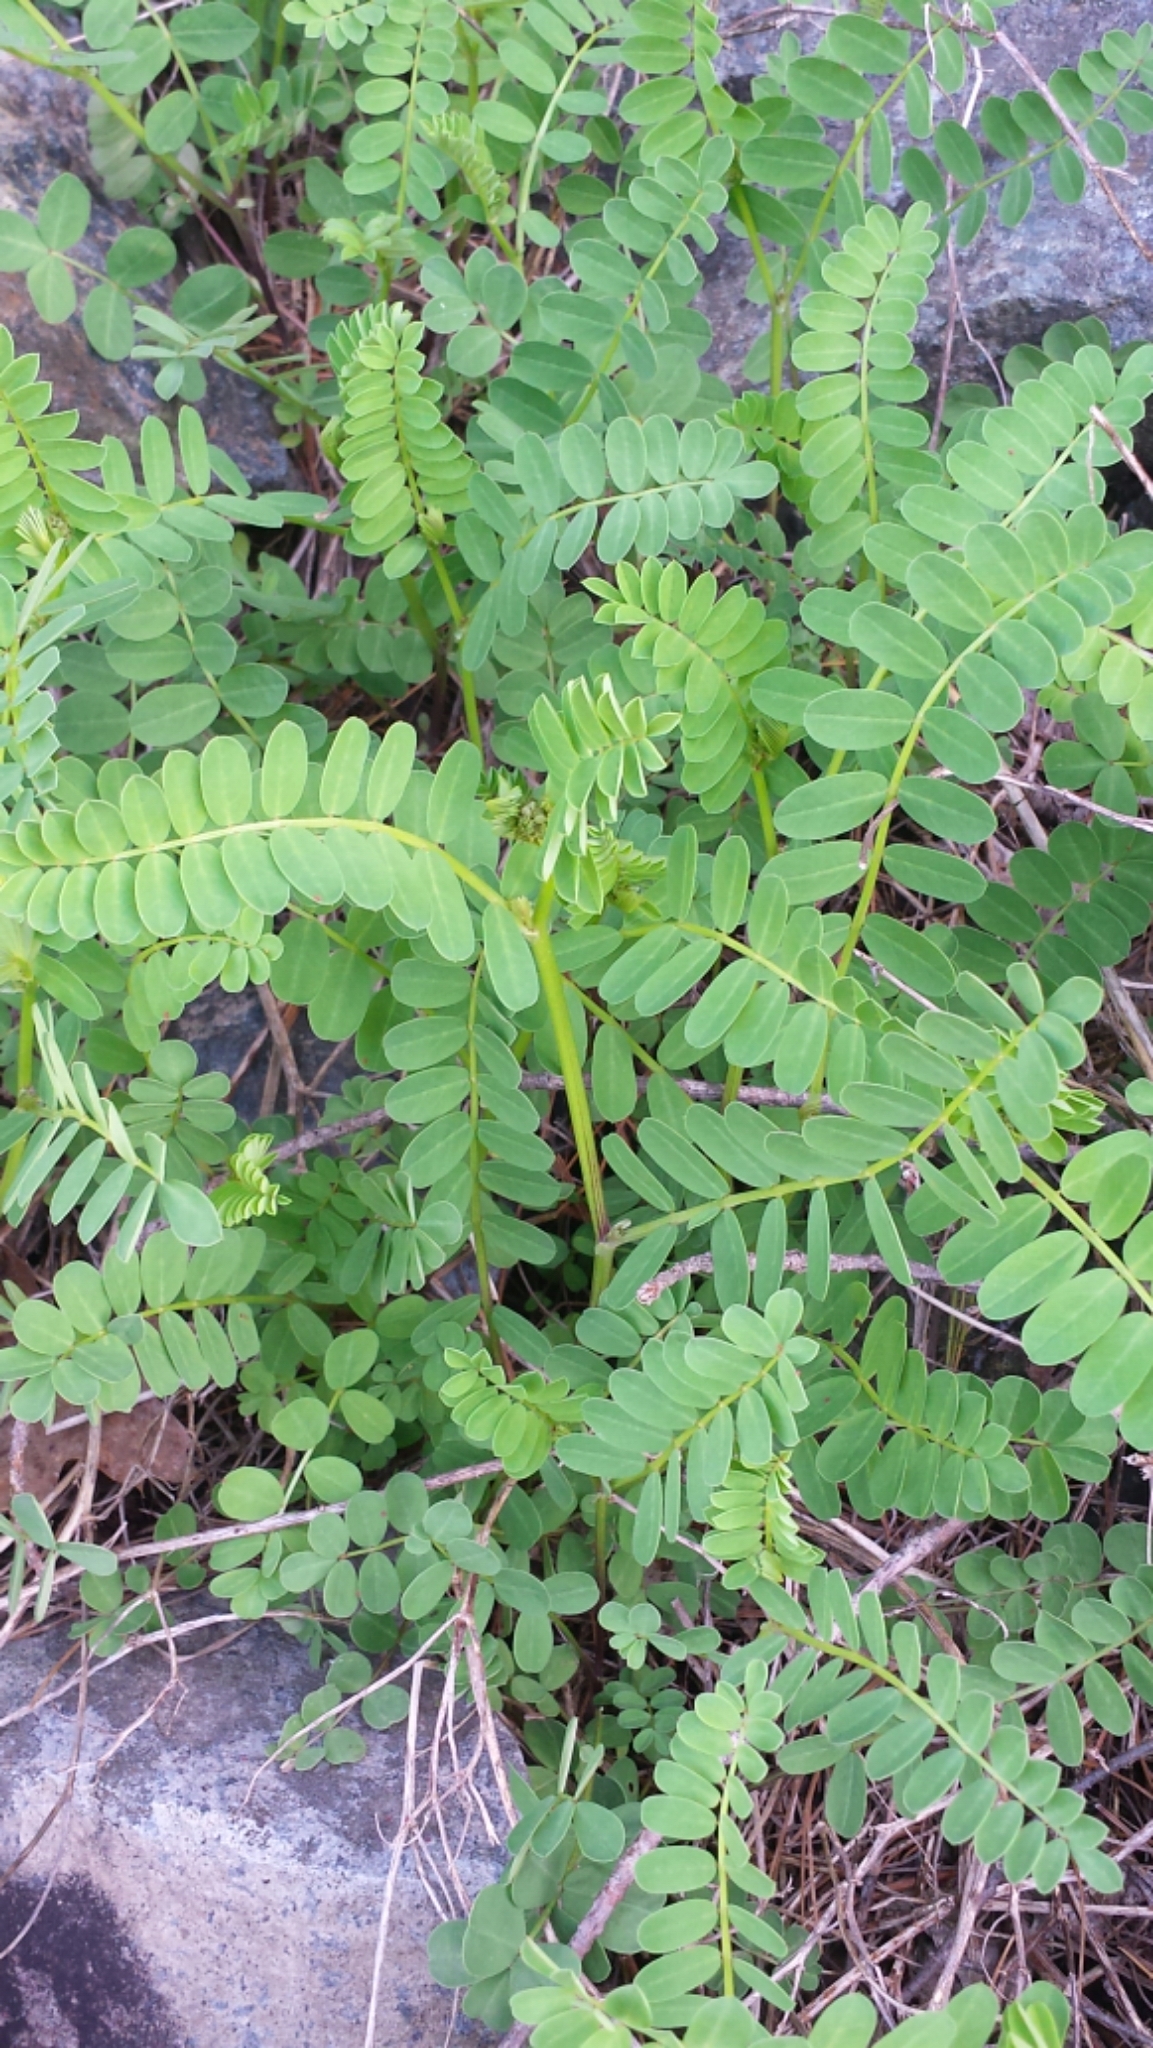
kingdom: Plantae
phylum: Tracheophyta
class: Magnoliopsida
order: Fabales
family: Fabaceae
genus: Coronilla
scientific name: Coronilla varia
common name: Crownvetch
